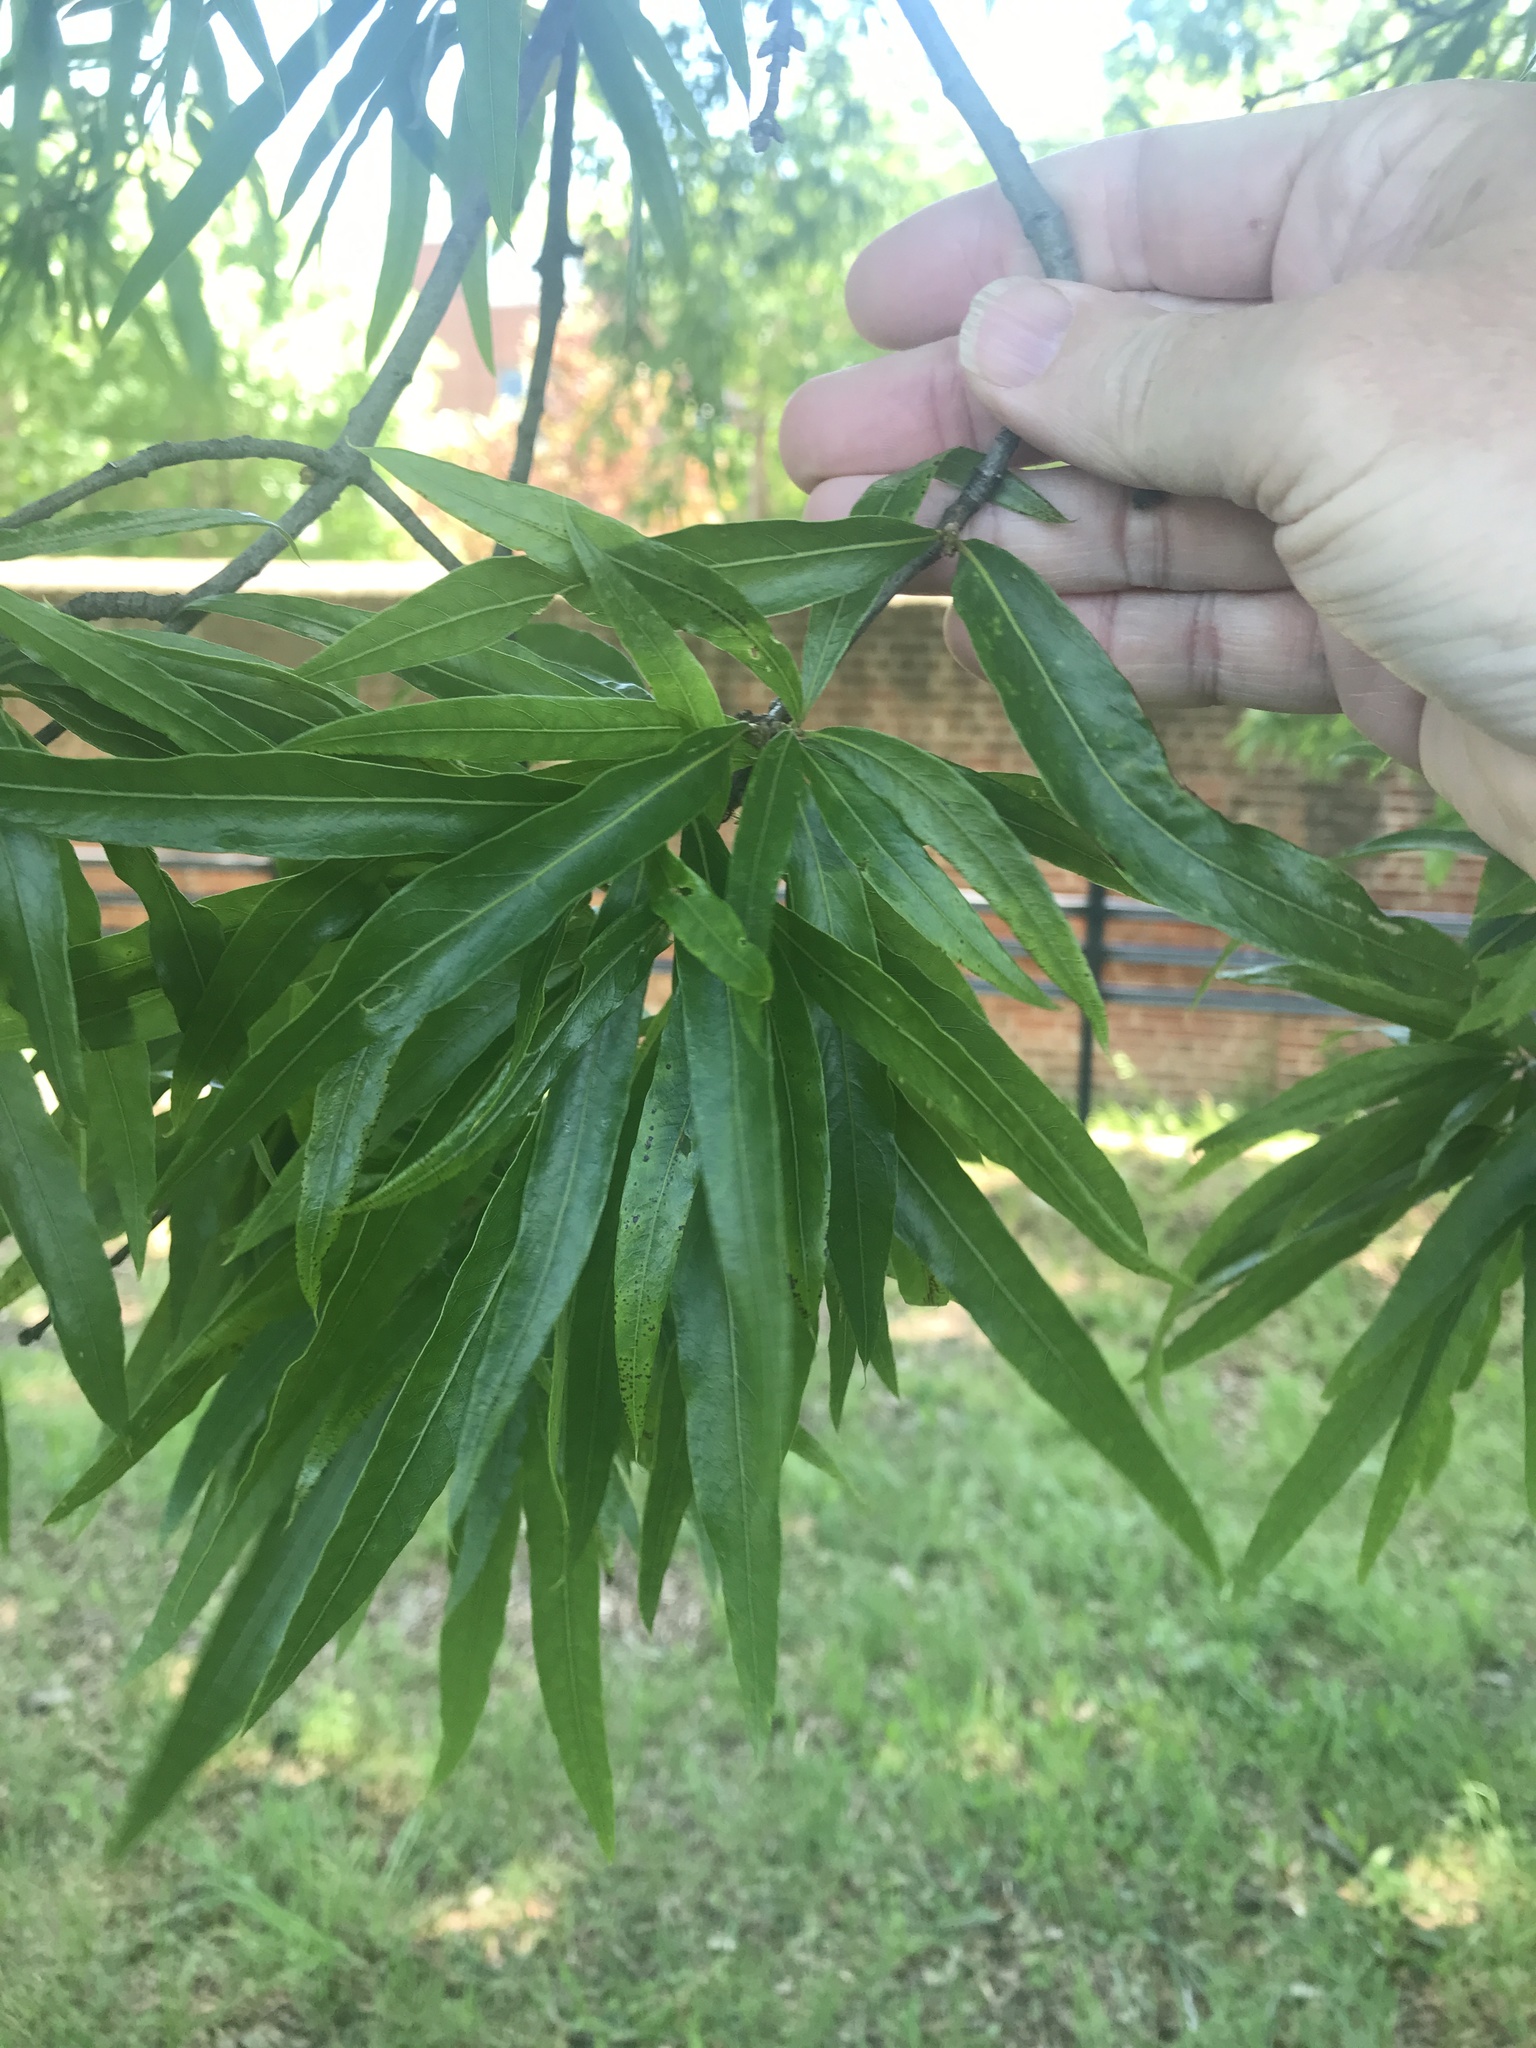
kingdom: Plantae
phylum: Tracheophyta
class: Magnoliopsida
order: Fagales
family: Fagaceae
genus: Quercus
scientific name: Quercus phellos
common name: Willow oak
